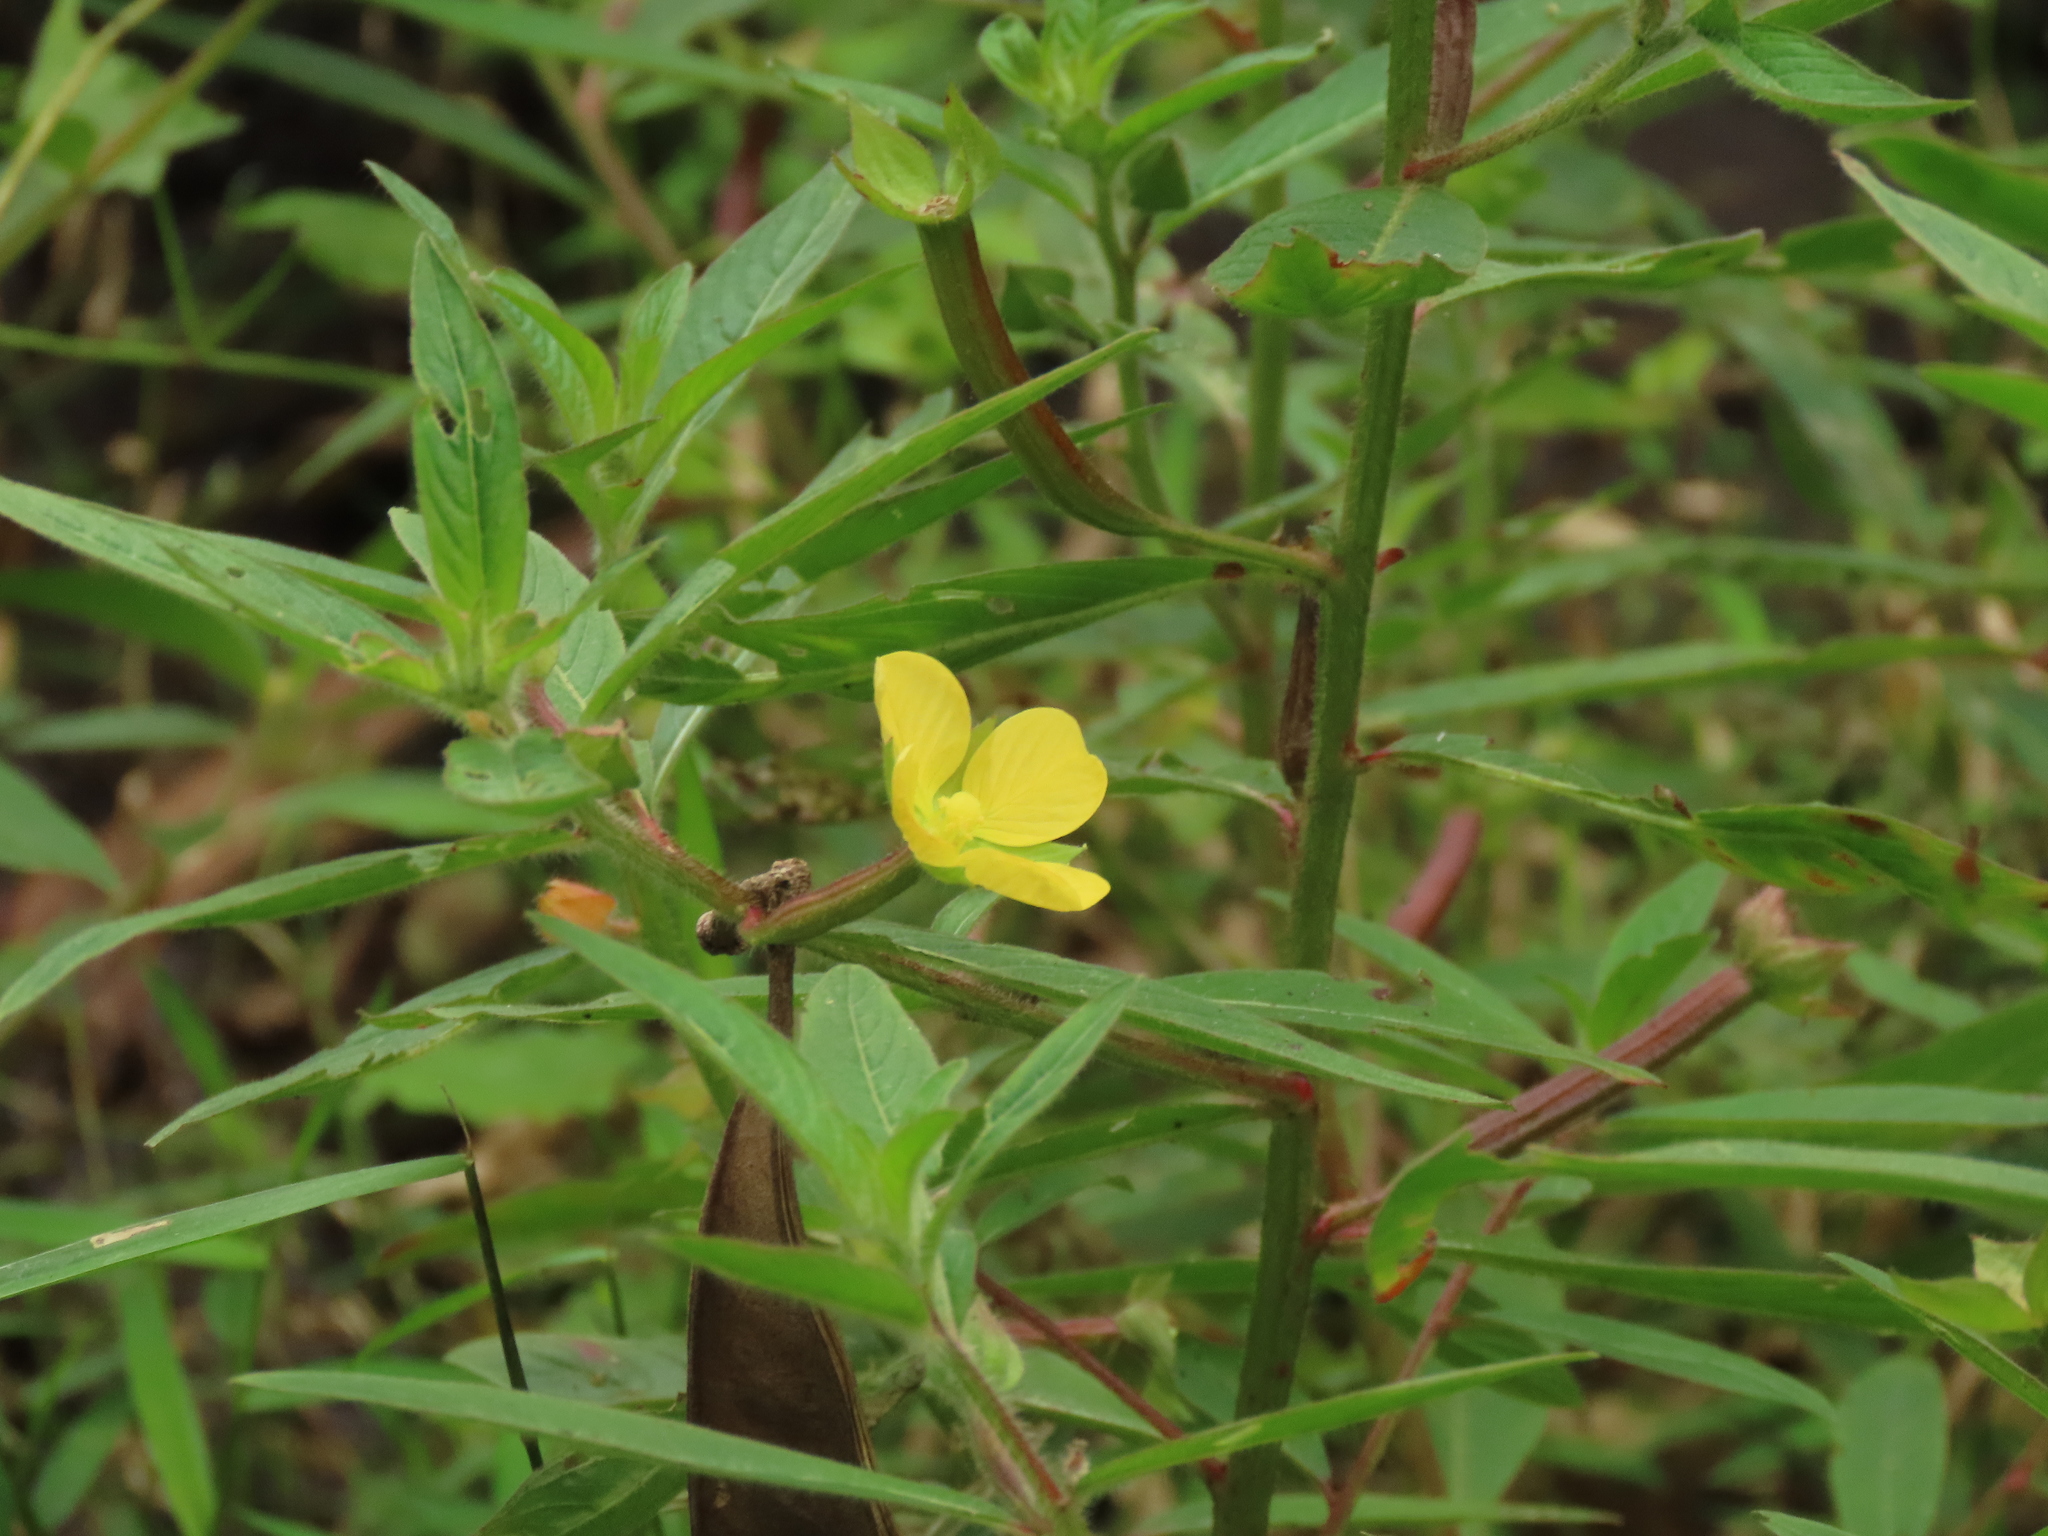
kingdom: Plantae
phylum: Tracheophyta
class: Magnoliopsida
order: Myrtales
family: Onagraceae
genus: Ludwigia
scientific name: Ludwigia octovalvis
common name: Water-primrose
